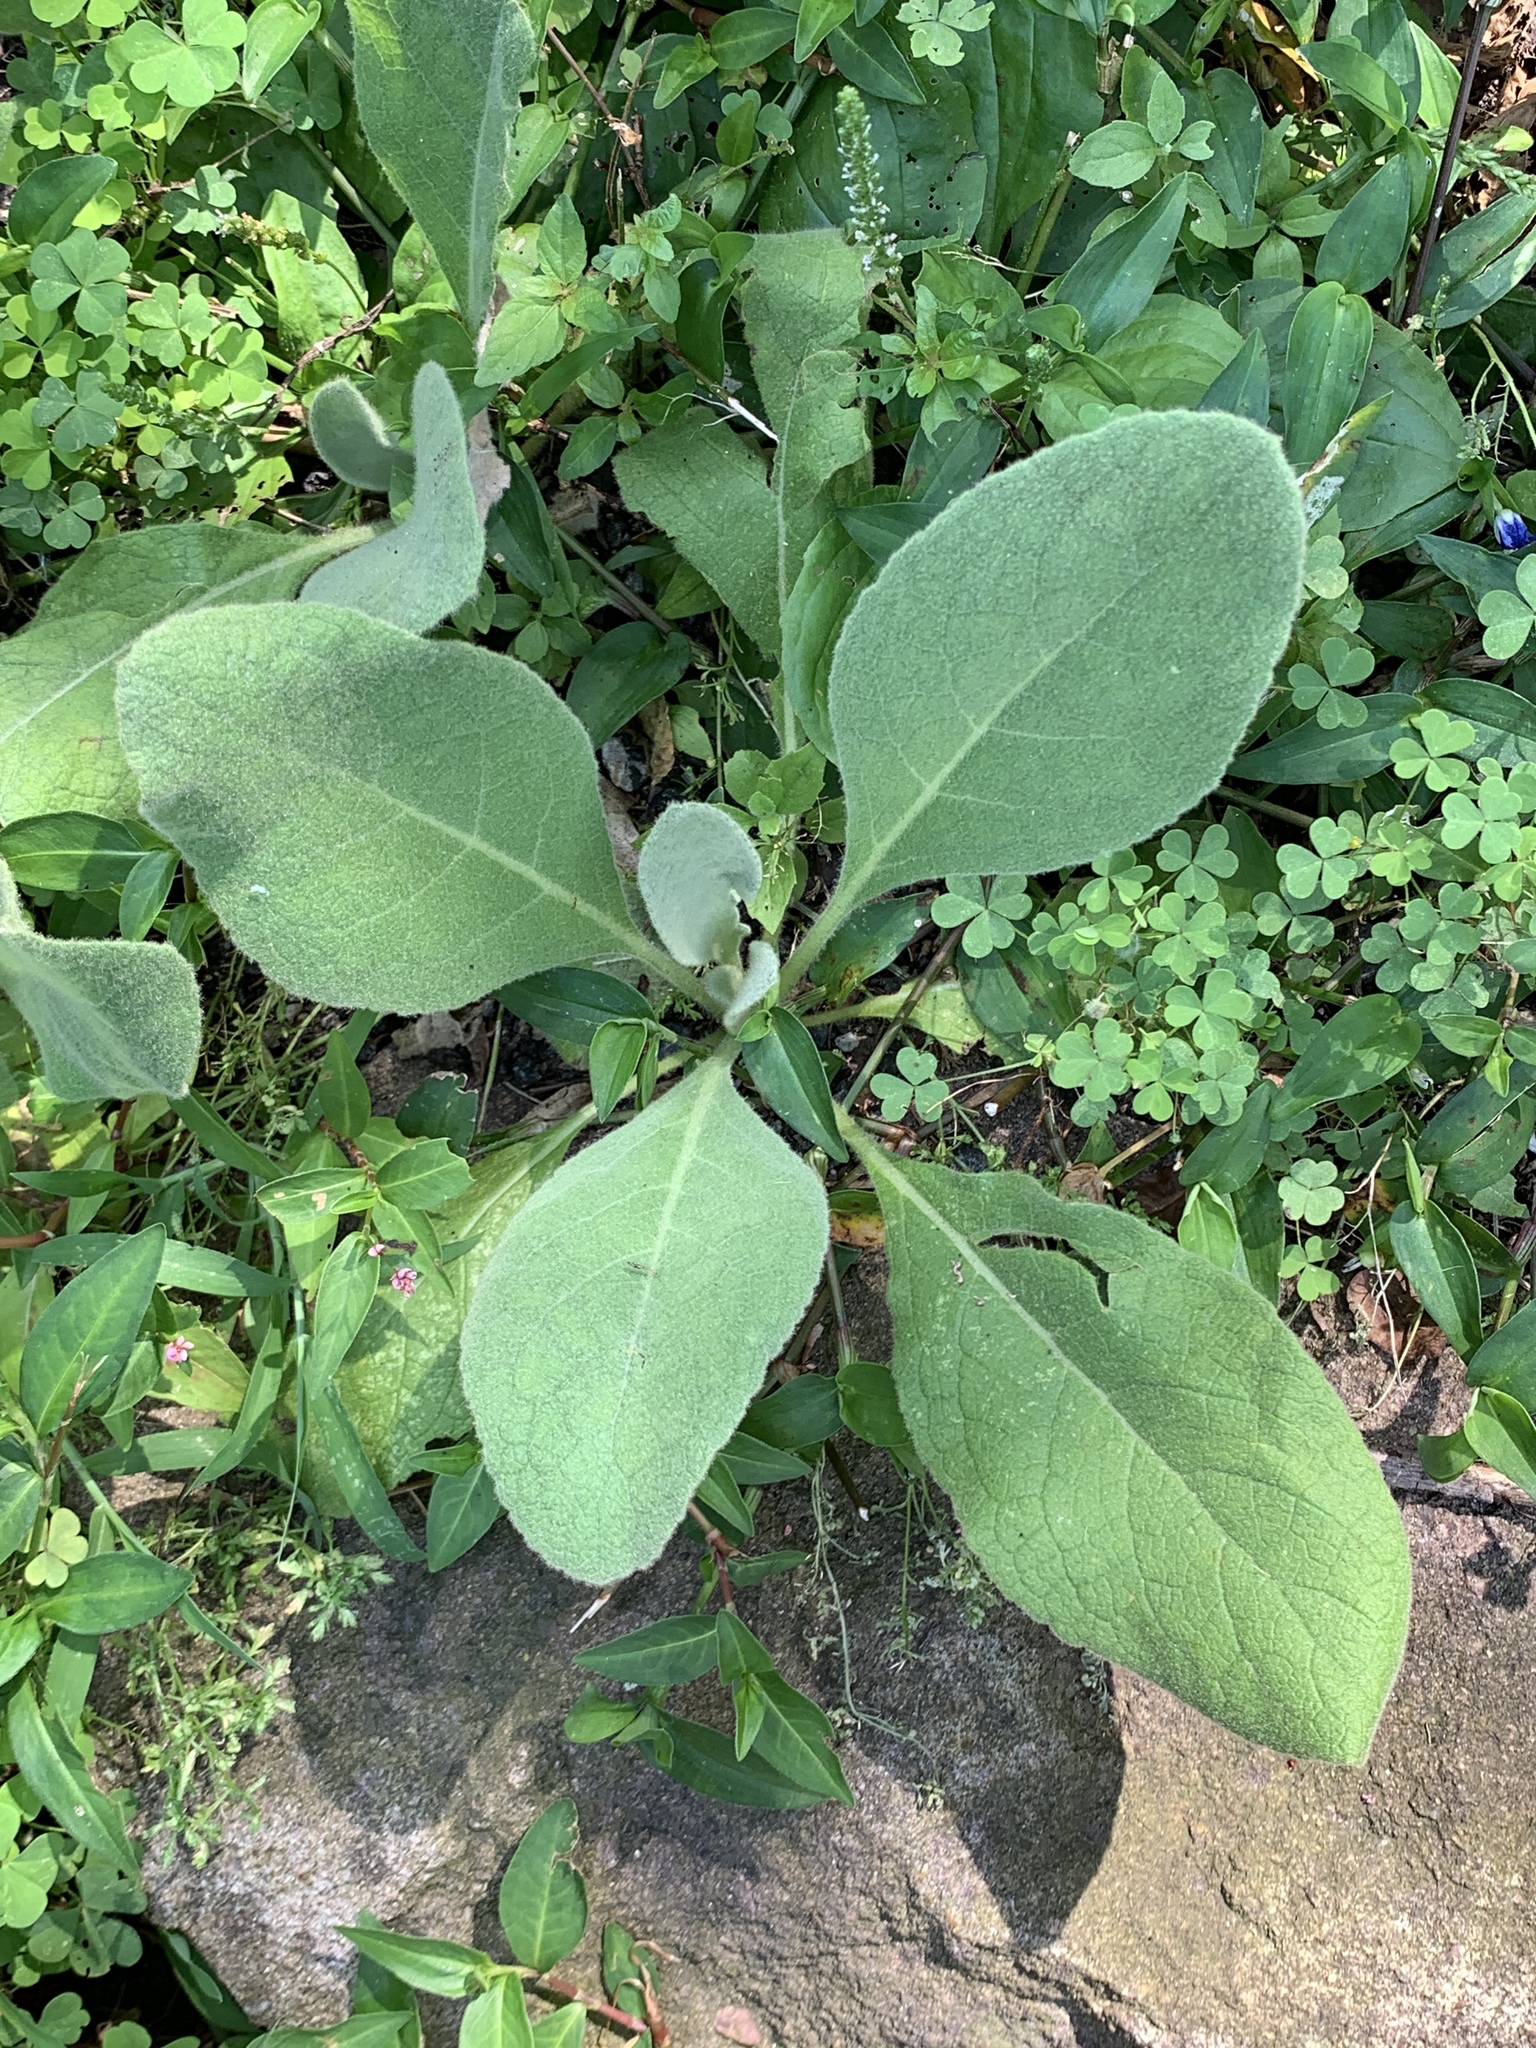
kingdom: Plantae
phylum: Tracheophyta
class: Magnoliopsida
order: Lamiales
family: Scrophulariaceae
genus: Verbascum
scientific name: Verbascum thapsus
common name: Common mullein
